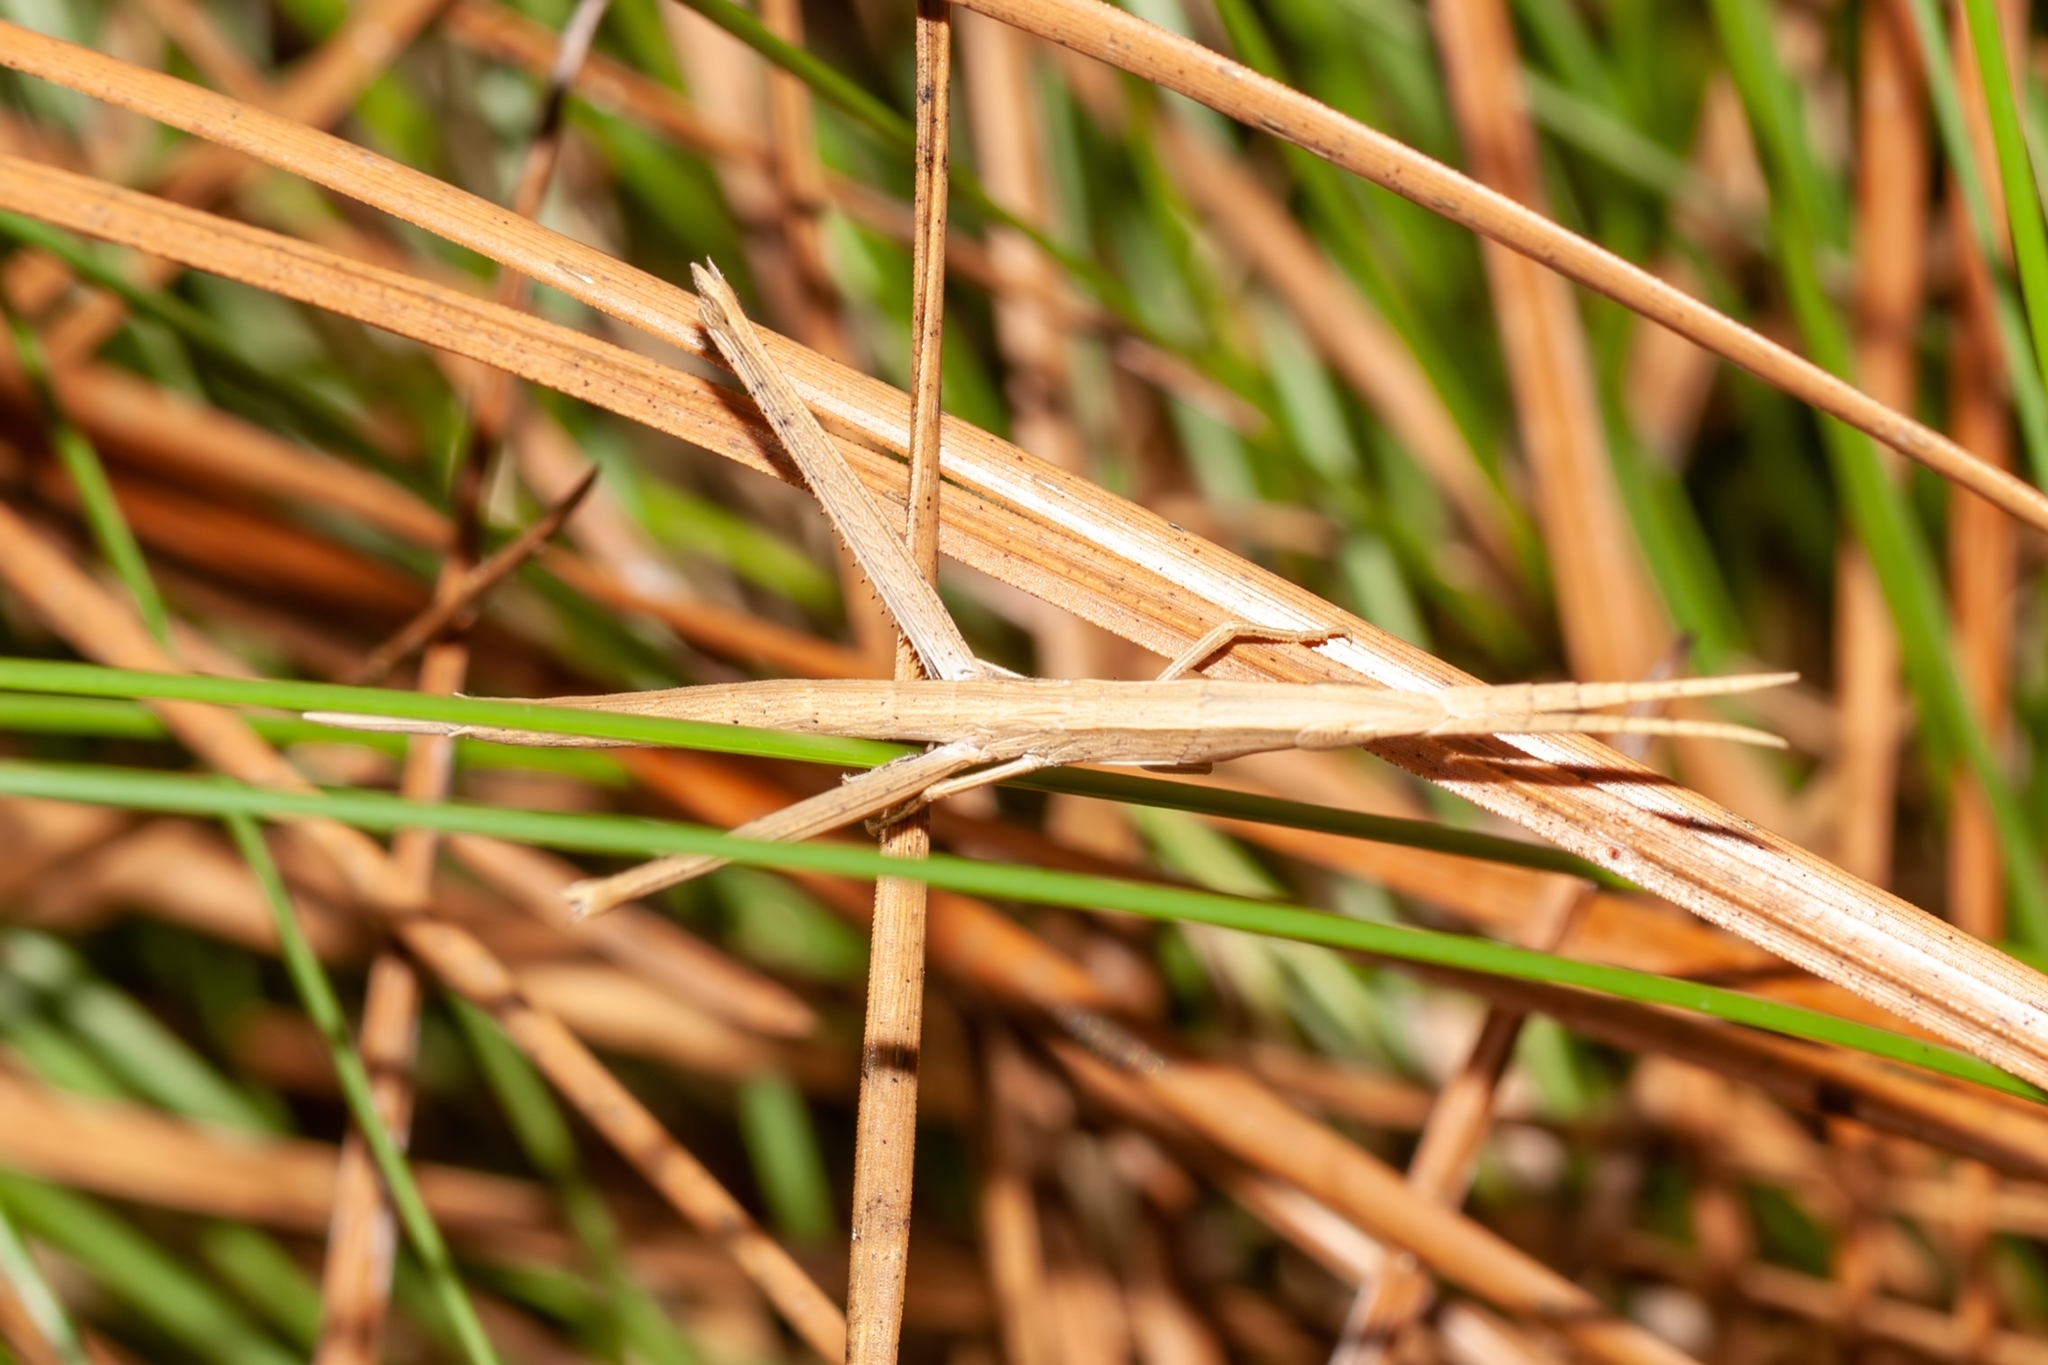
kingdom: Animalia
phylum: Arthropoda
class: Insecta
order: Orthoptera
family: Acrididae
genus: Achurum
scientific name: Achurum carinatum
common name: Long-headed toothpick grasshopper
